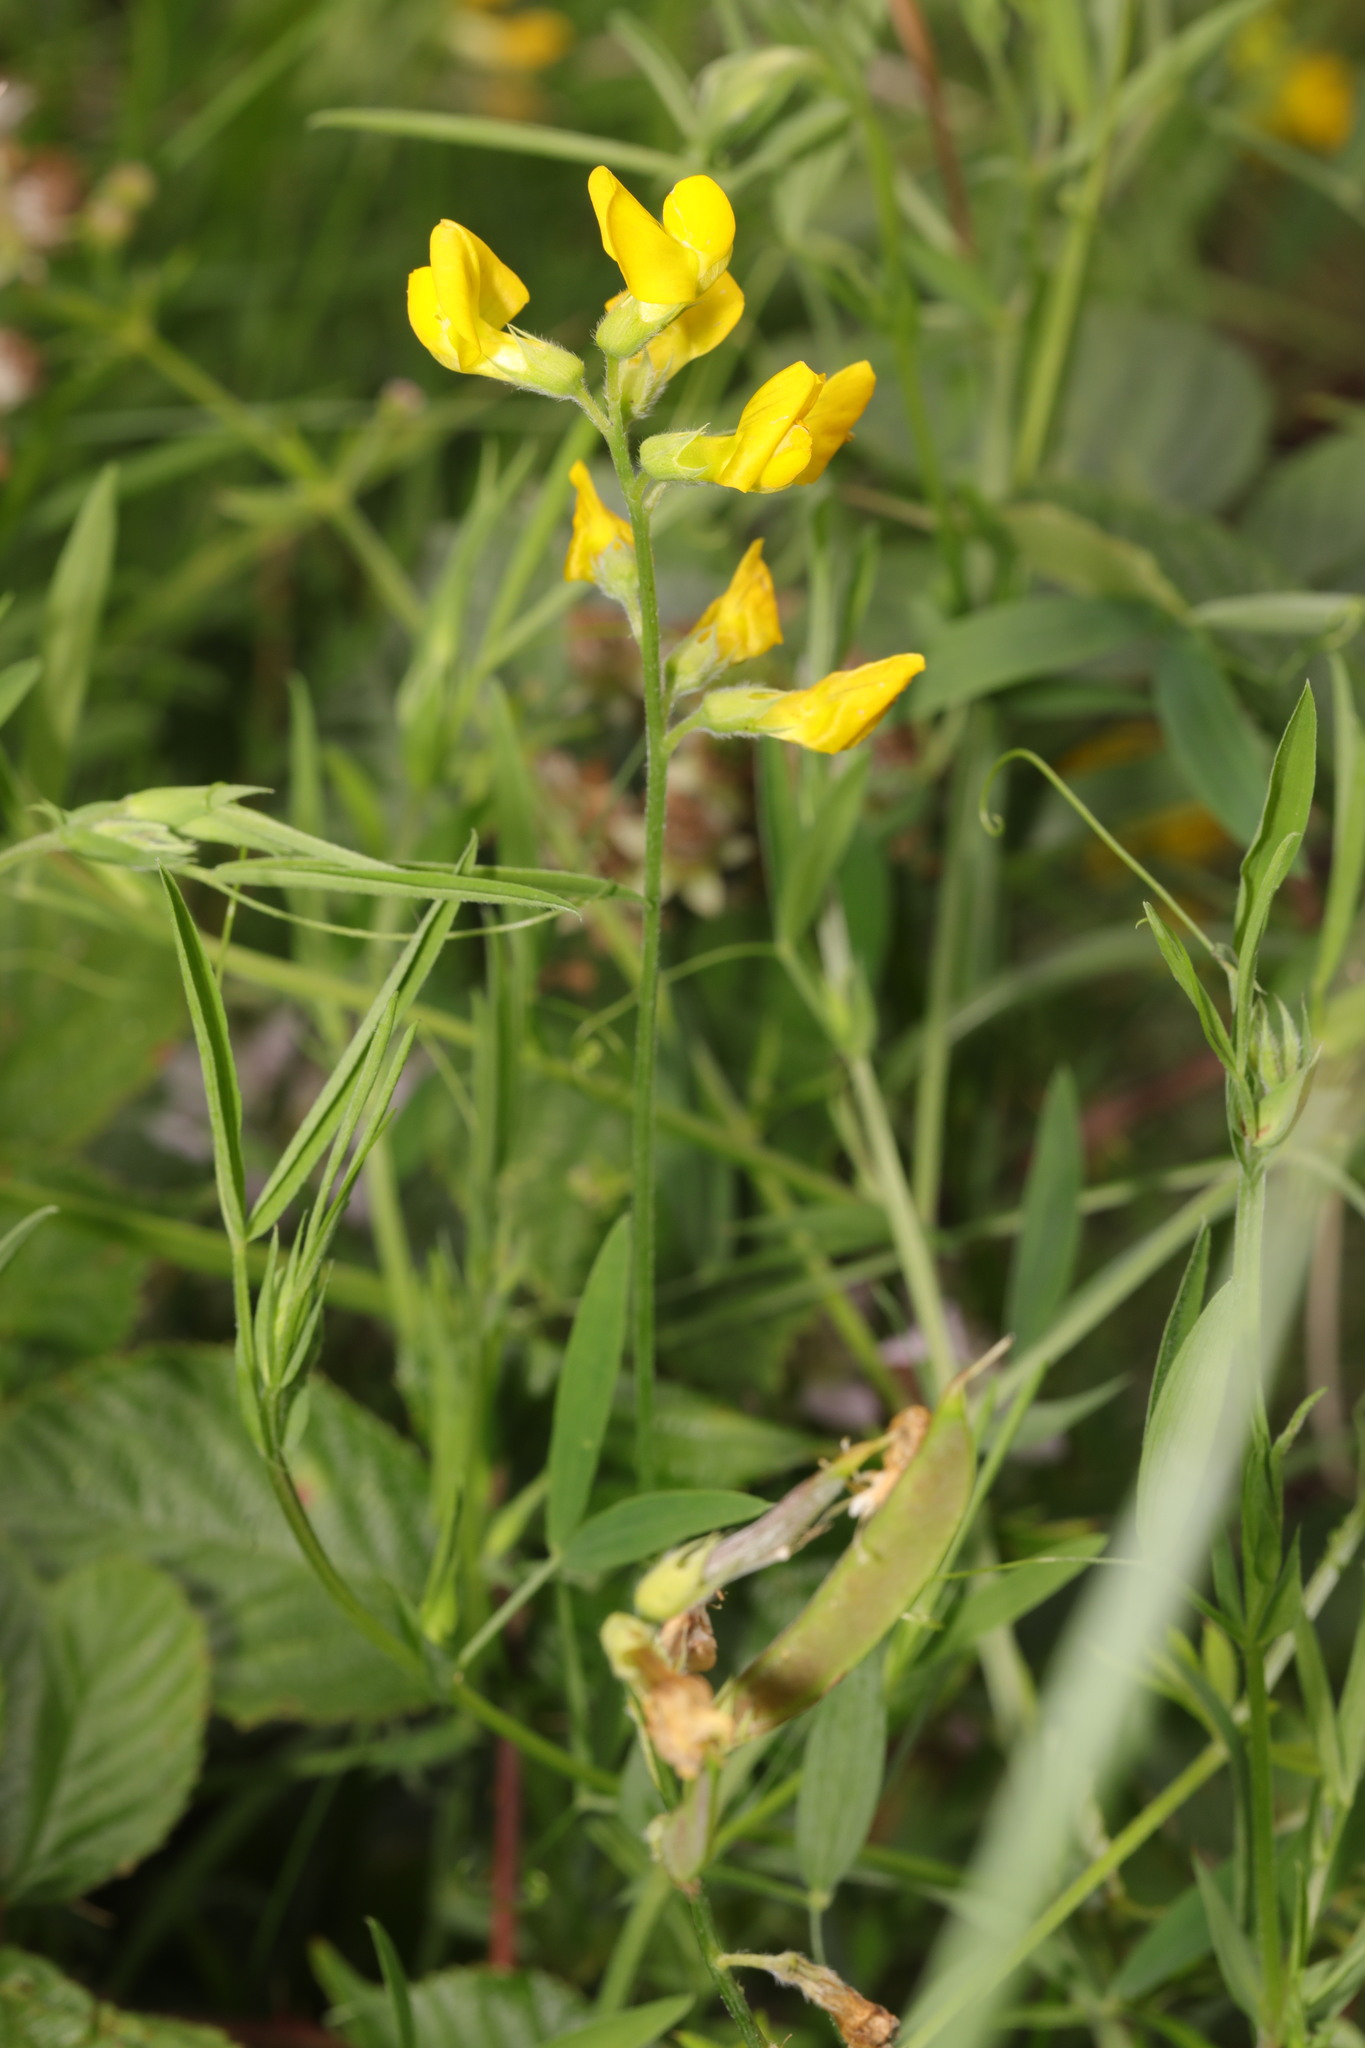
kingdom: Plantae
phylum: Tracheophyta
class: Magnoliopsida
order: Fabales
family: Fabaceae
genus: Lathyrus
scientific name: Lathyrus pratensis
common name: Meadow vetchling
